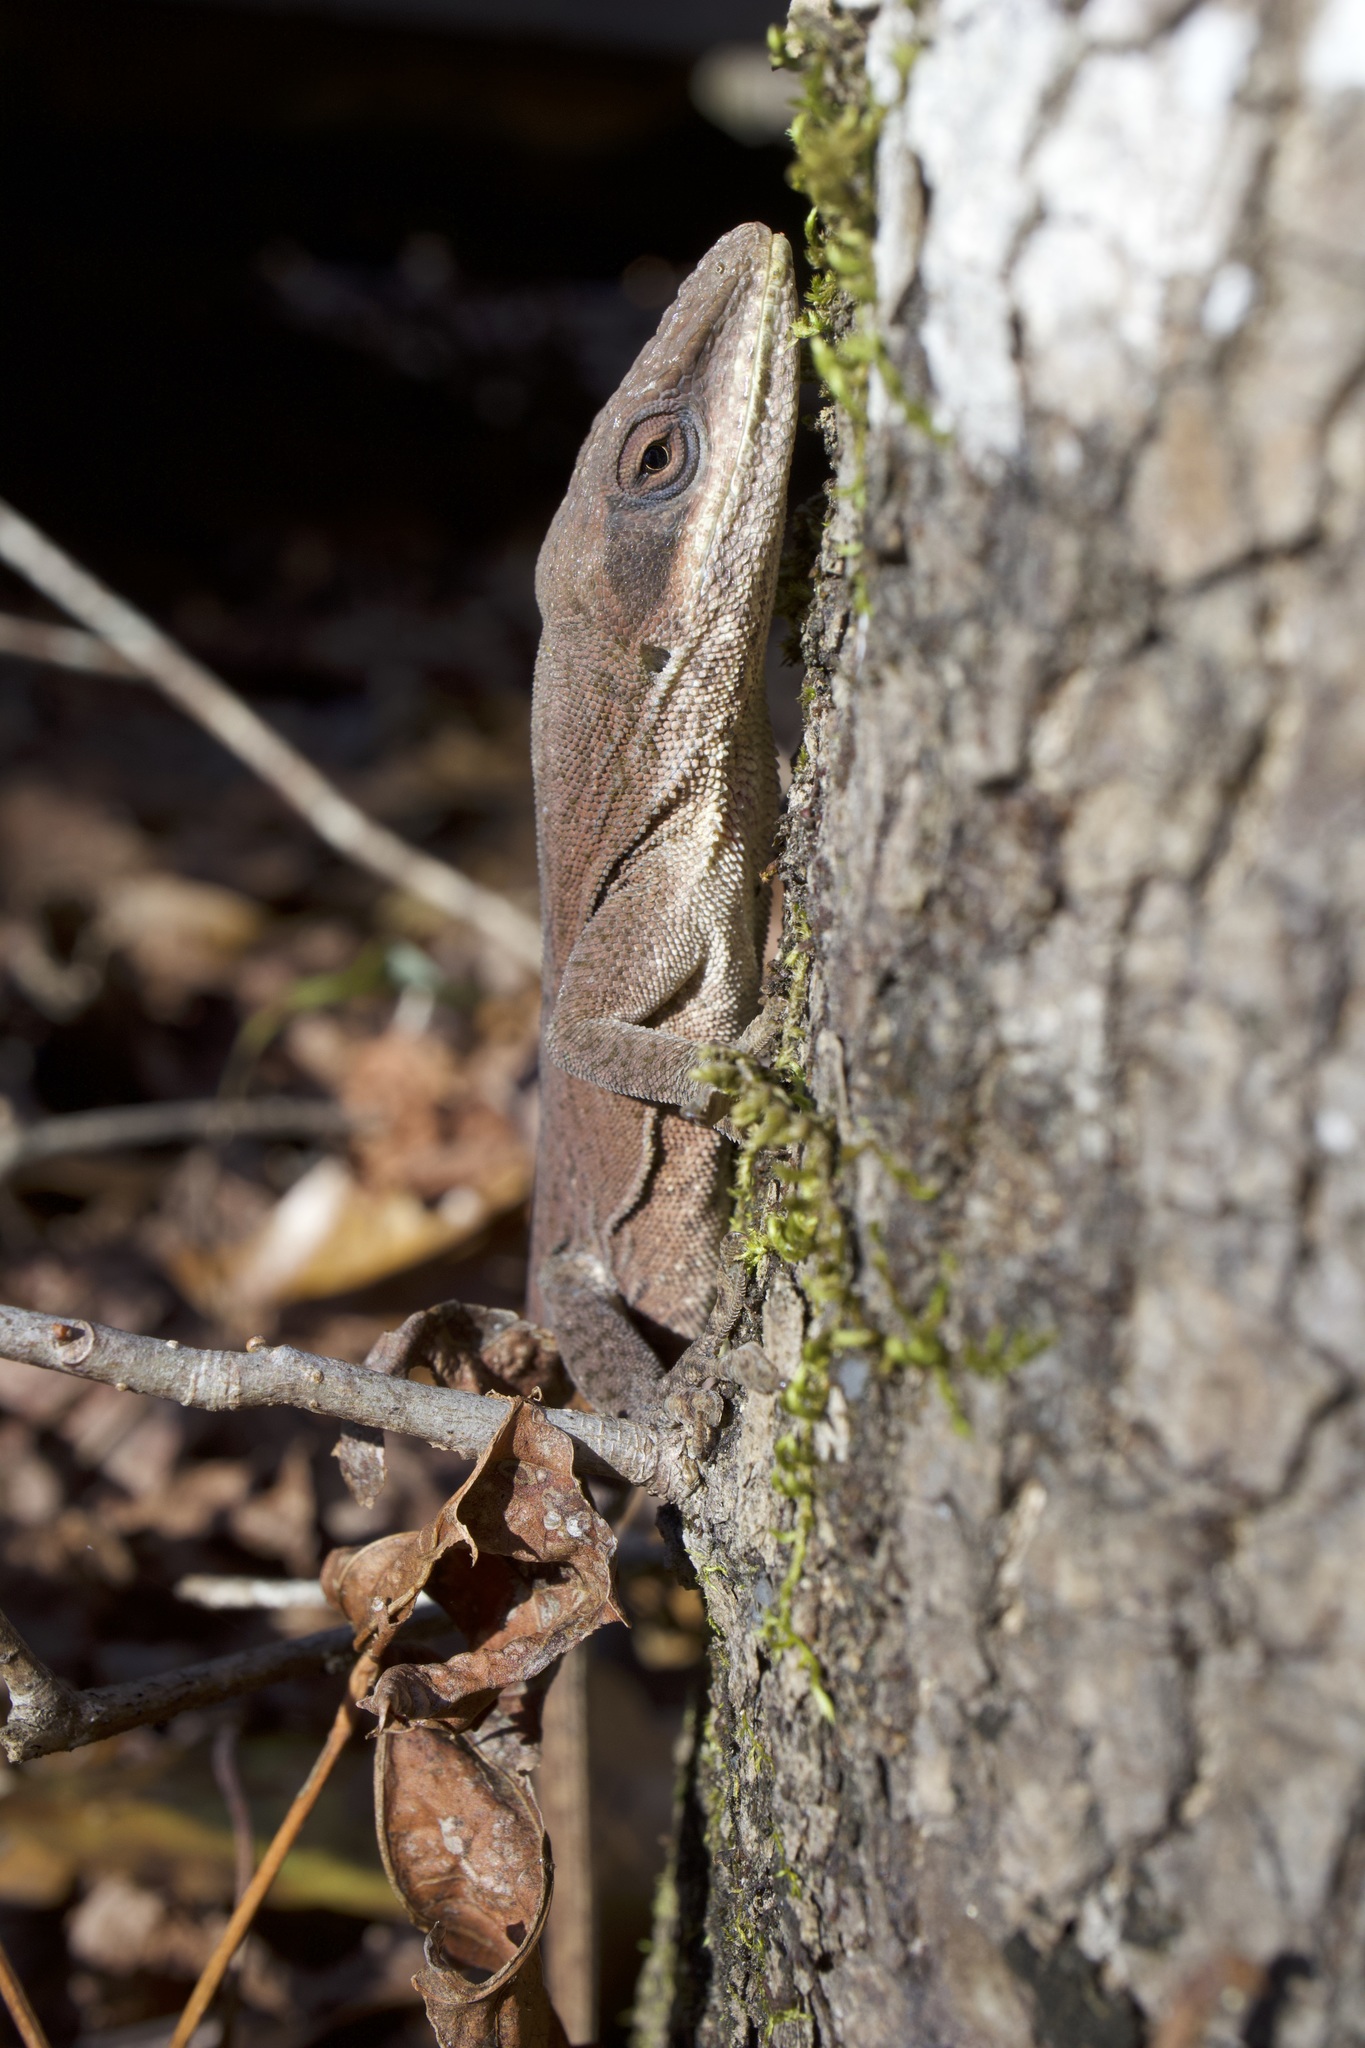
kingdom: Animalia
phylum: Chordata
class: Squamata
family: Dactyloidae
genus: Anolis
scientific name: Anolis carolinensis
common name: Green anole
